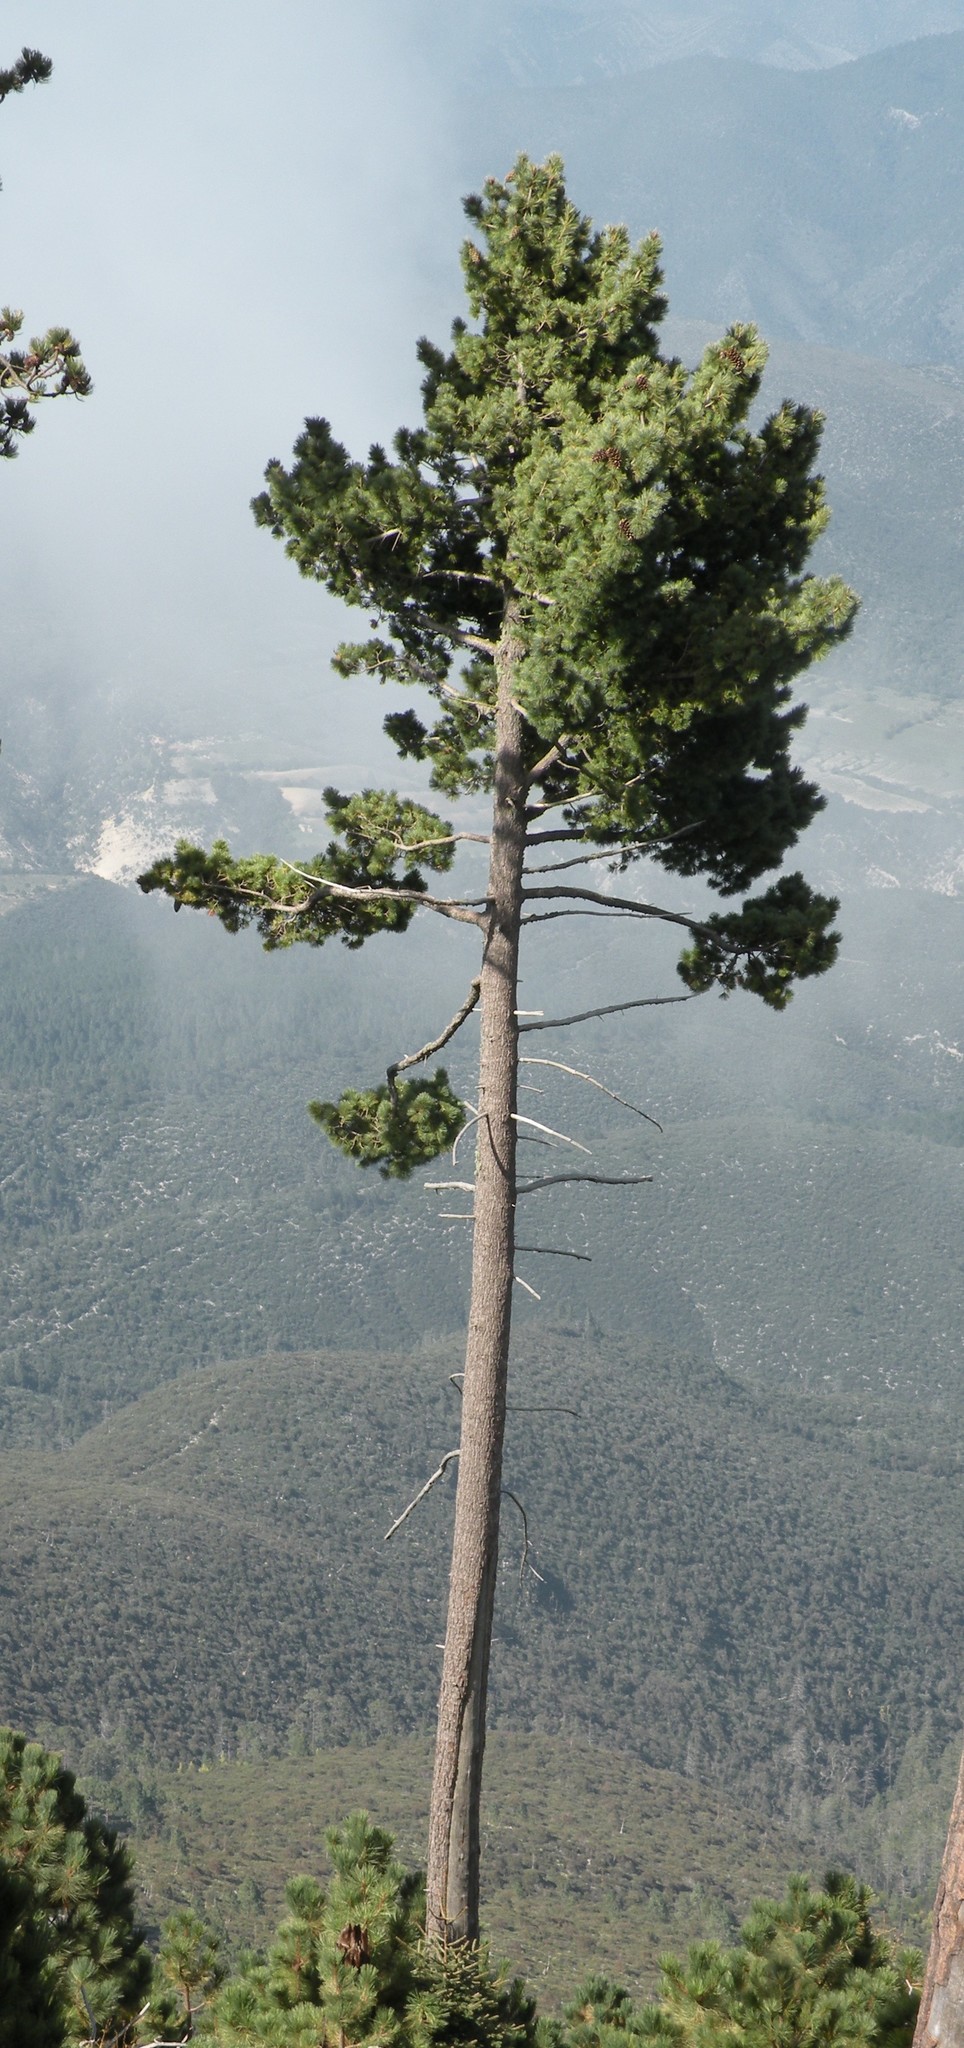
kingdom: Plantae
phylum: Tracheophyta
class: Pinopsida
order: Pinales
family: Pinaceae
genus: Pinus
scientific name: Pinus flexilis
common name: Limber pine
